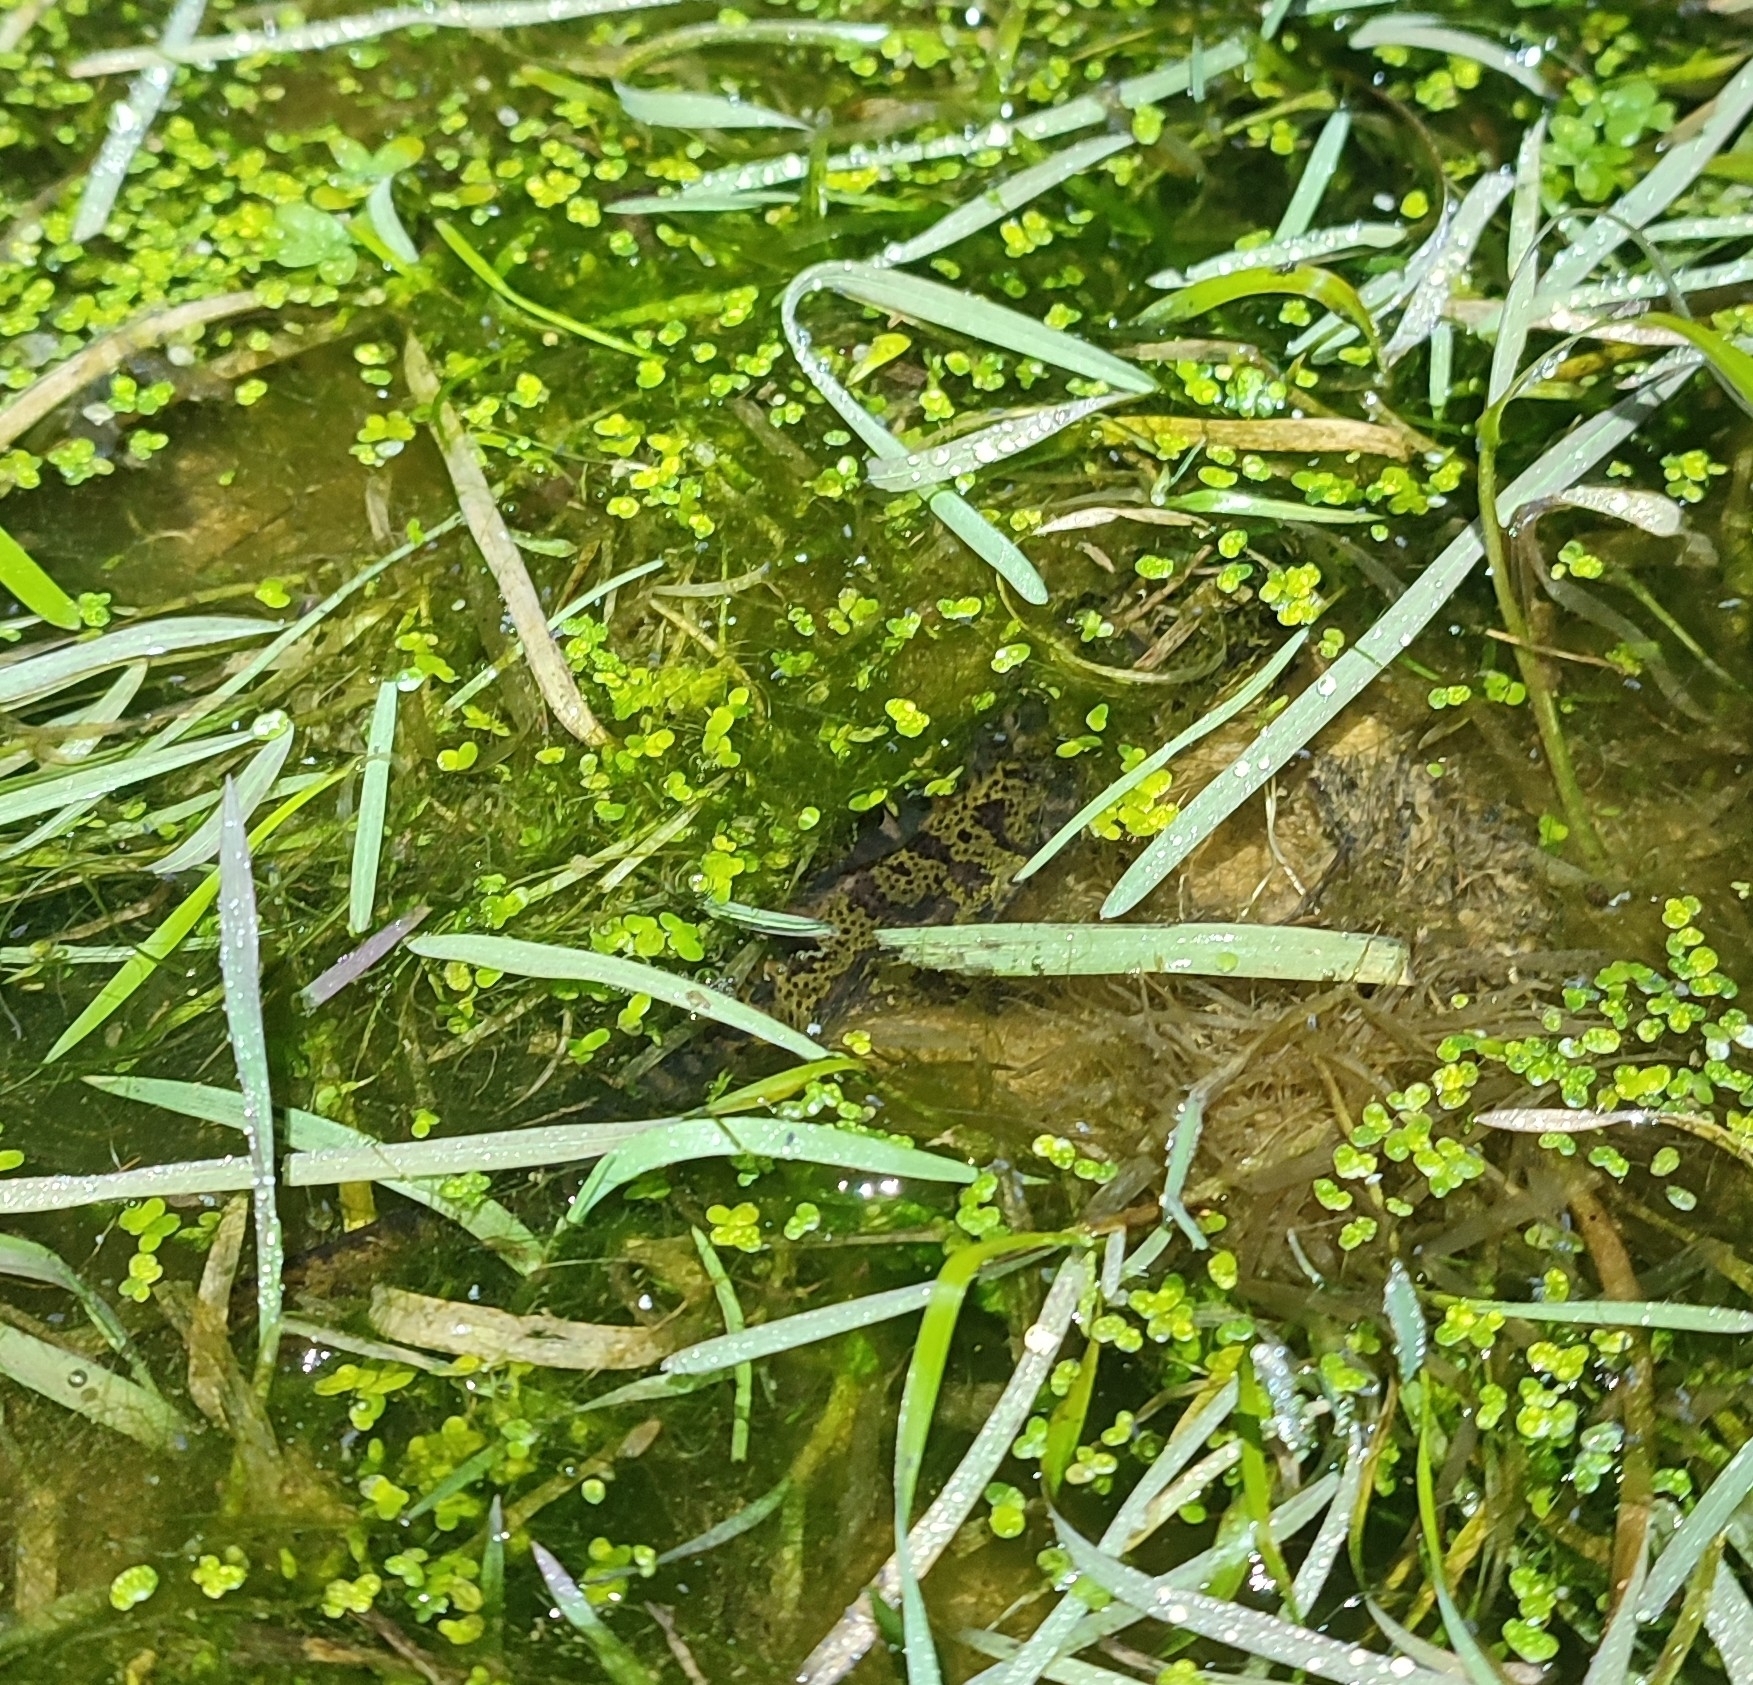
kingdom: Animalia
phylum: Chordata
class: Amphibia
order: Caudata
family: Salamandridae
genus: Triturus
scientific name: Triturus marmoratus
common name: Marbled newt
